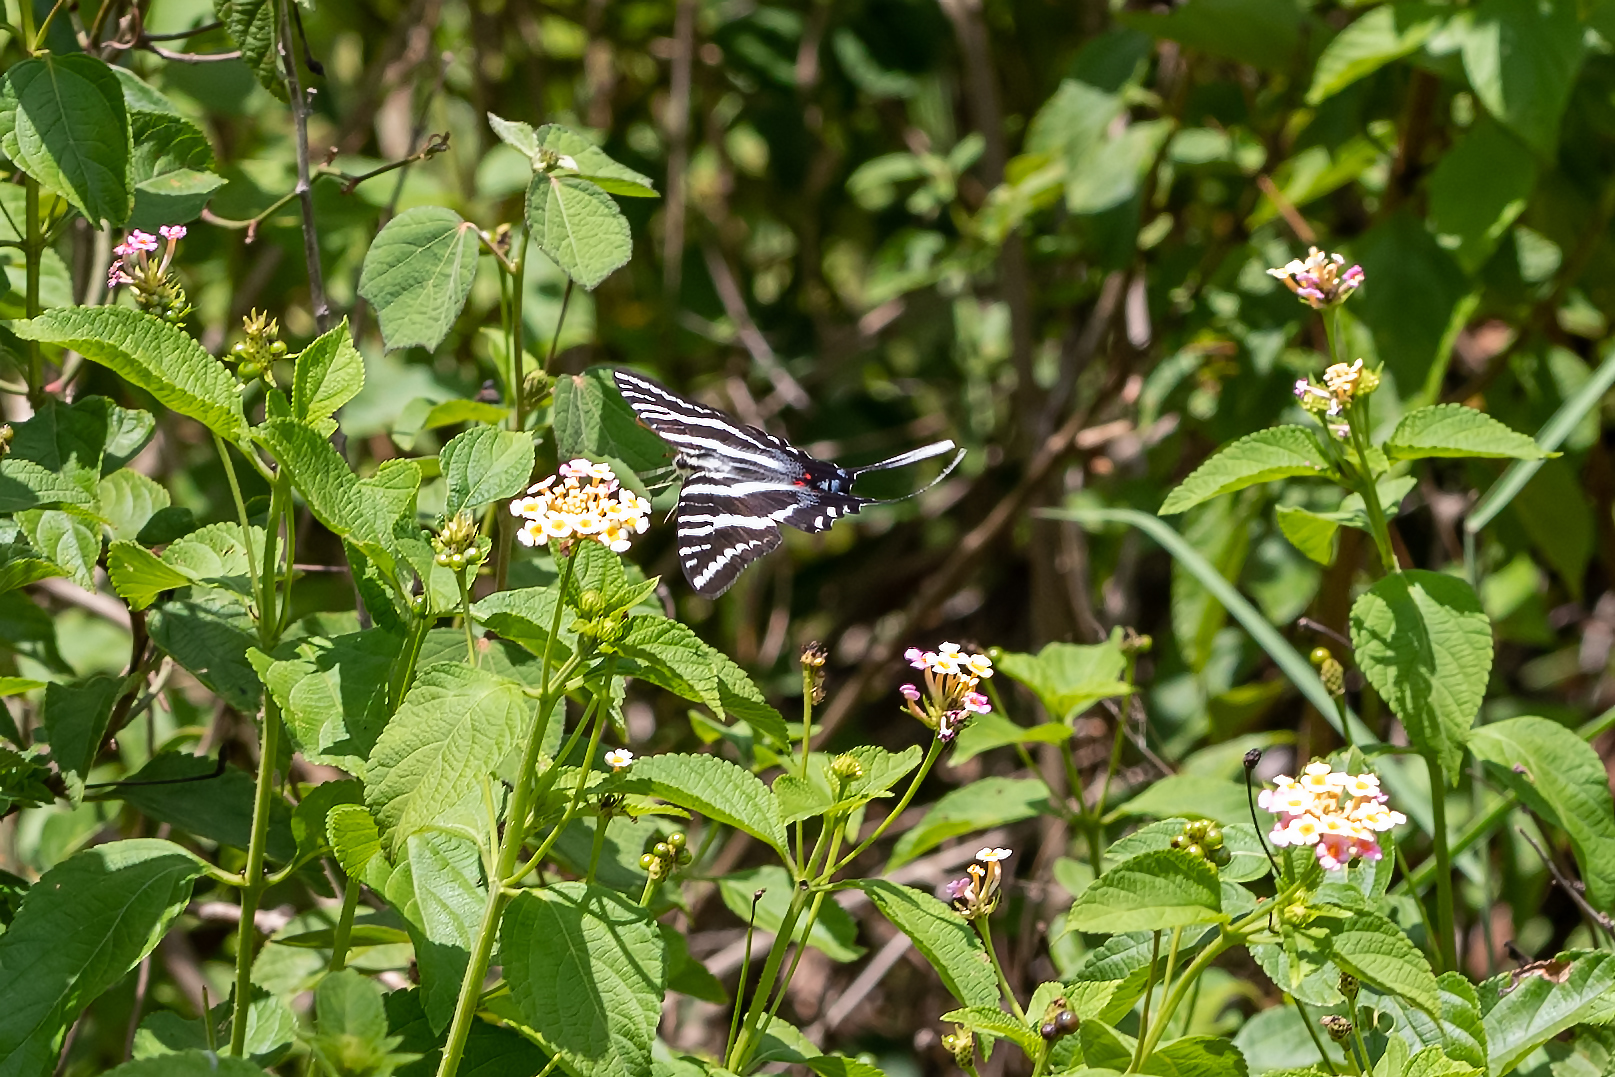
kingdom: Animalia
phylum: Arthropoda
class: Insecta
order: Lepidoptera
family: Papilionidae
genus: Protographium
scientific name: Protographium marcellus
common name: Zebra swallowtail
